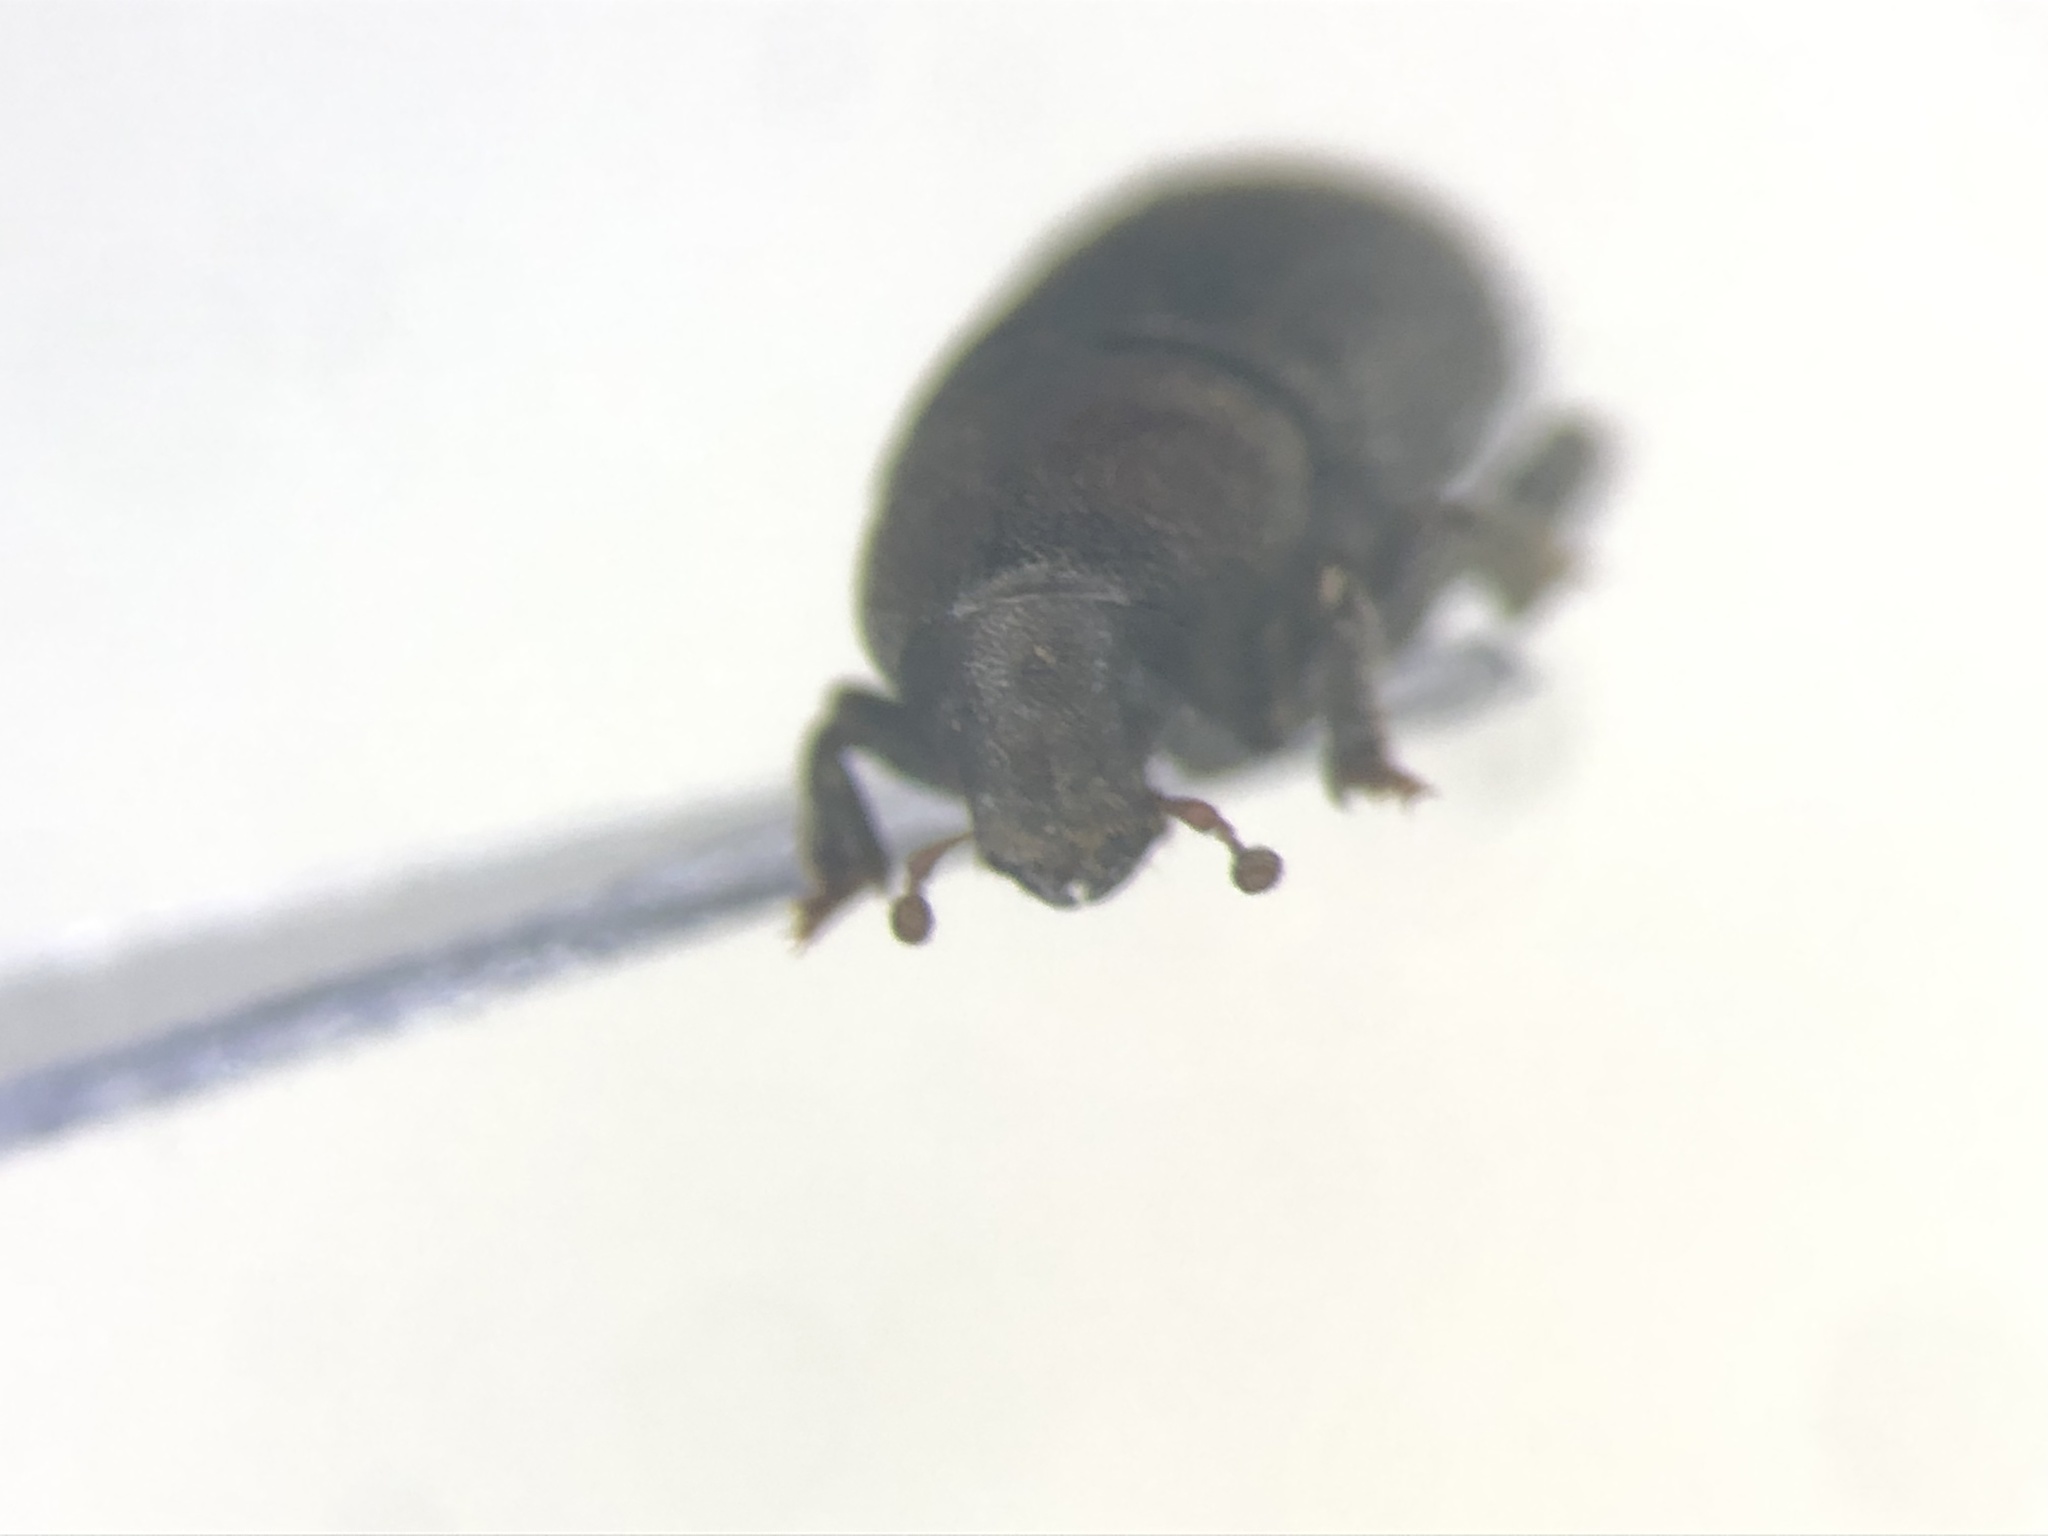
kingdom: Animalia
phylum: Arthropoda
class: Insecta
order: Coleoptera
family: Curculionidae
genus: Hylurgops
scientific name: Hylurgops pinifex
